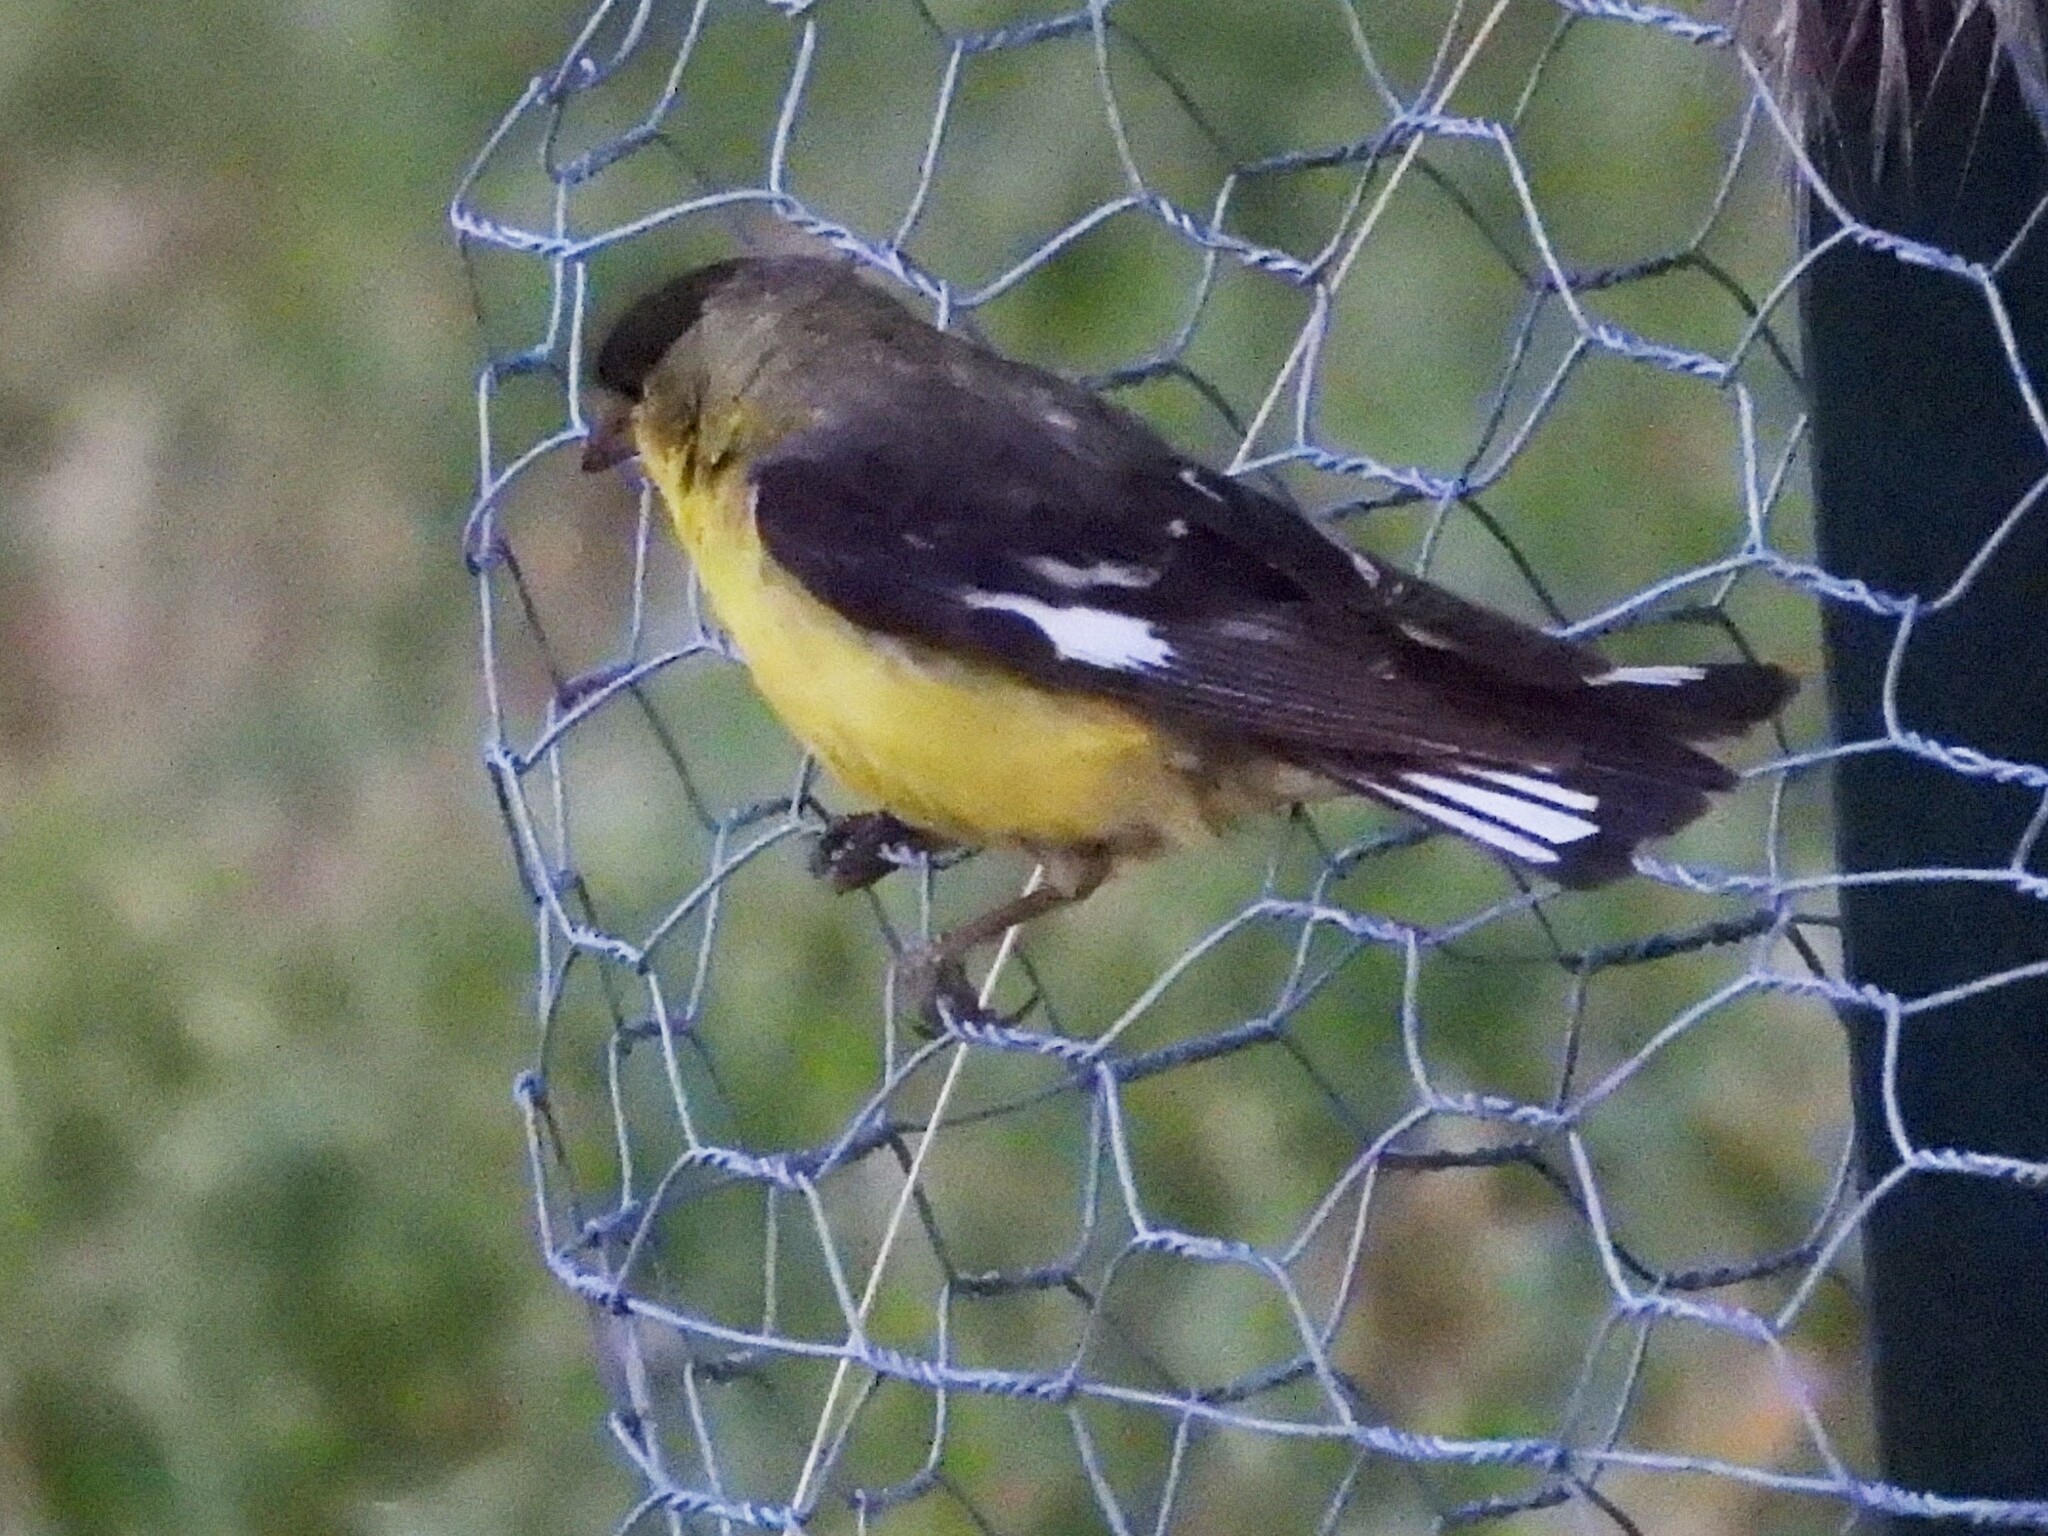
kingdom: Animalia
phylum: Chordata
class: Aves
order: Passeriformes
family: Fringillidae
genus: Spinus
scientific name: Spinus psaltria
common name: Lesser goldfinch
